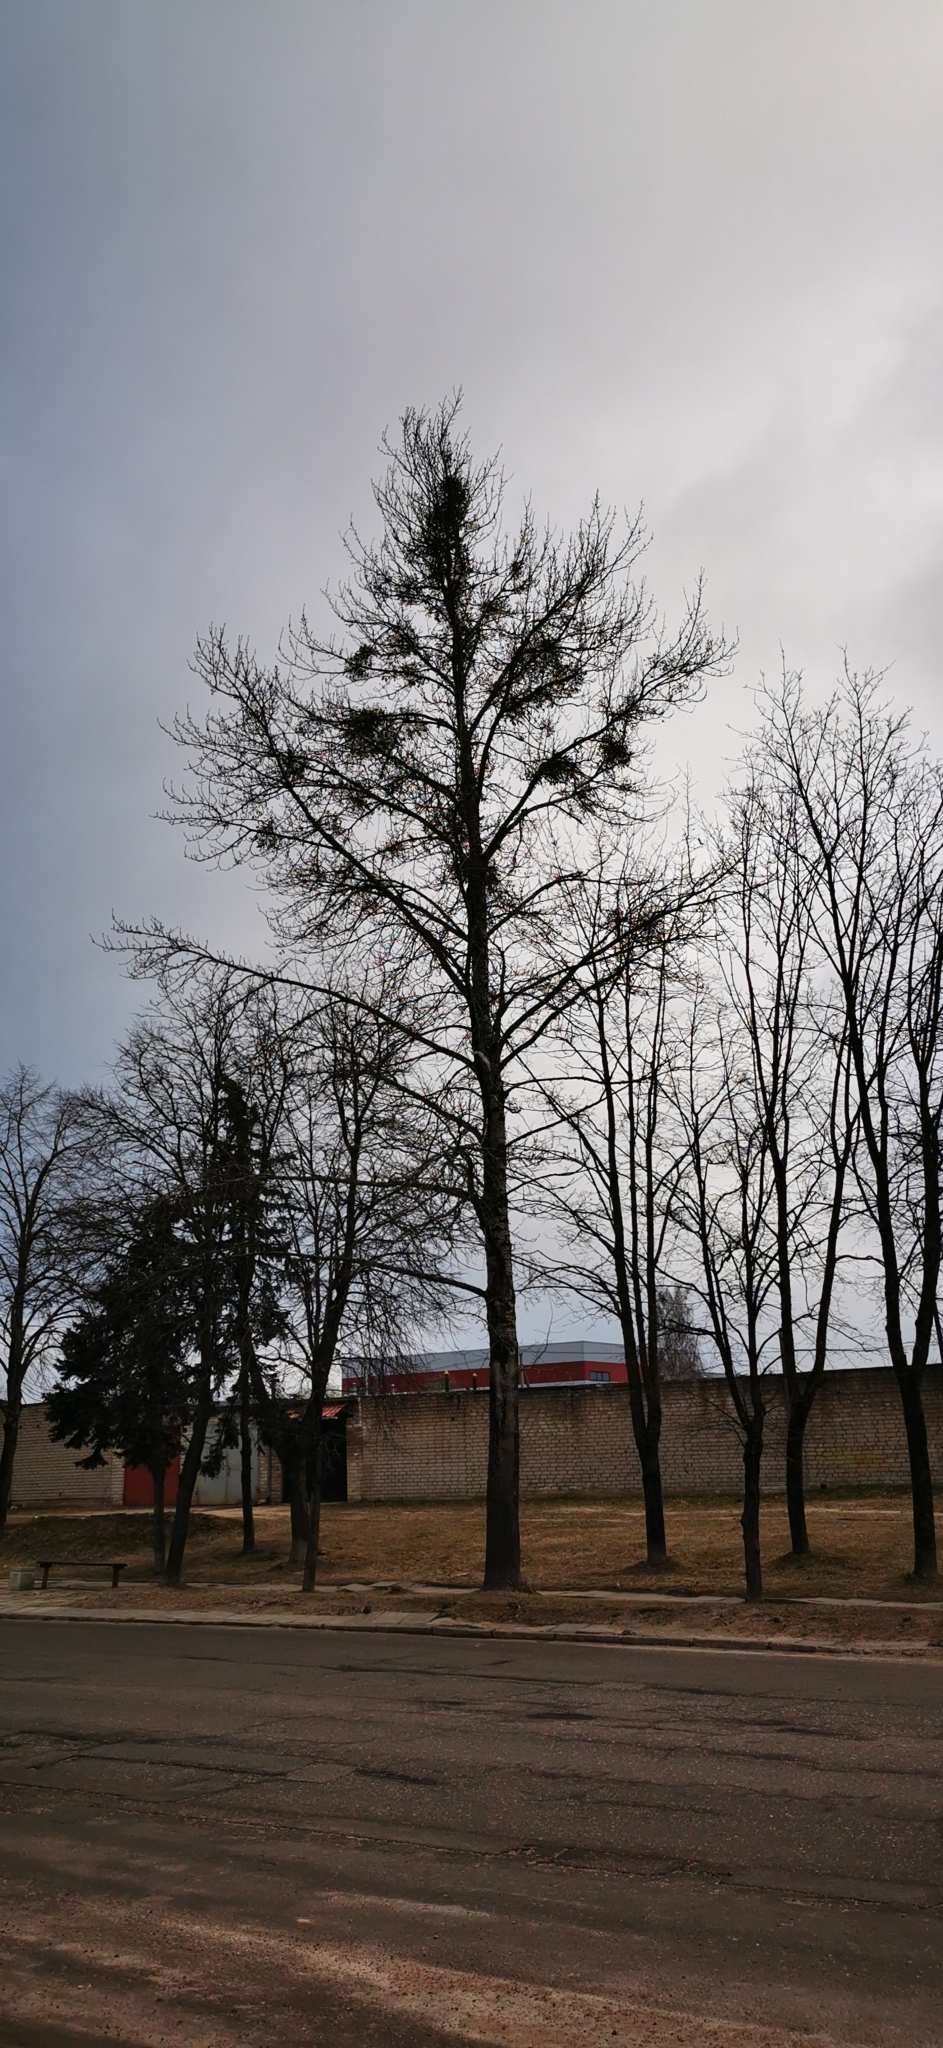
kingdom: Plantae
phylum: Tracheophyta
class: Magnoliopsida
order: Santalales
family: Viscaceae
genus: Viscum
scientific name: Viscum album
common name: Mistletoe
